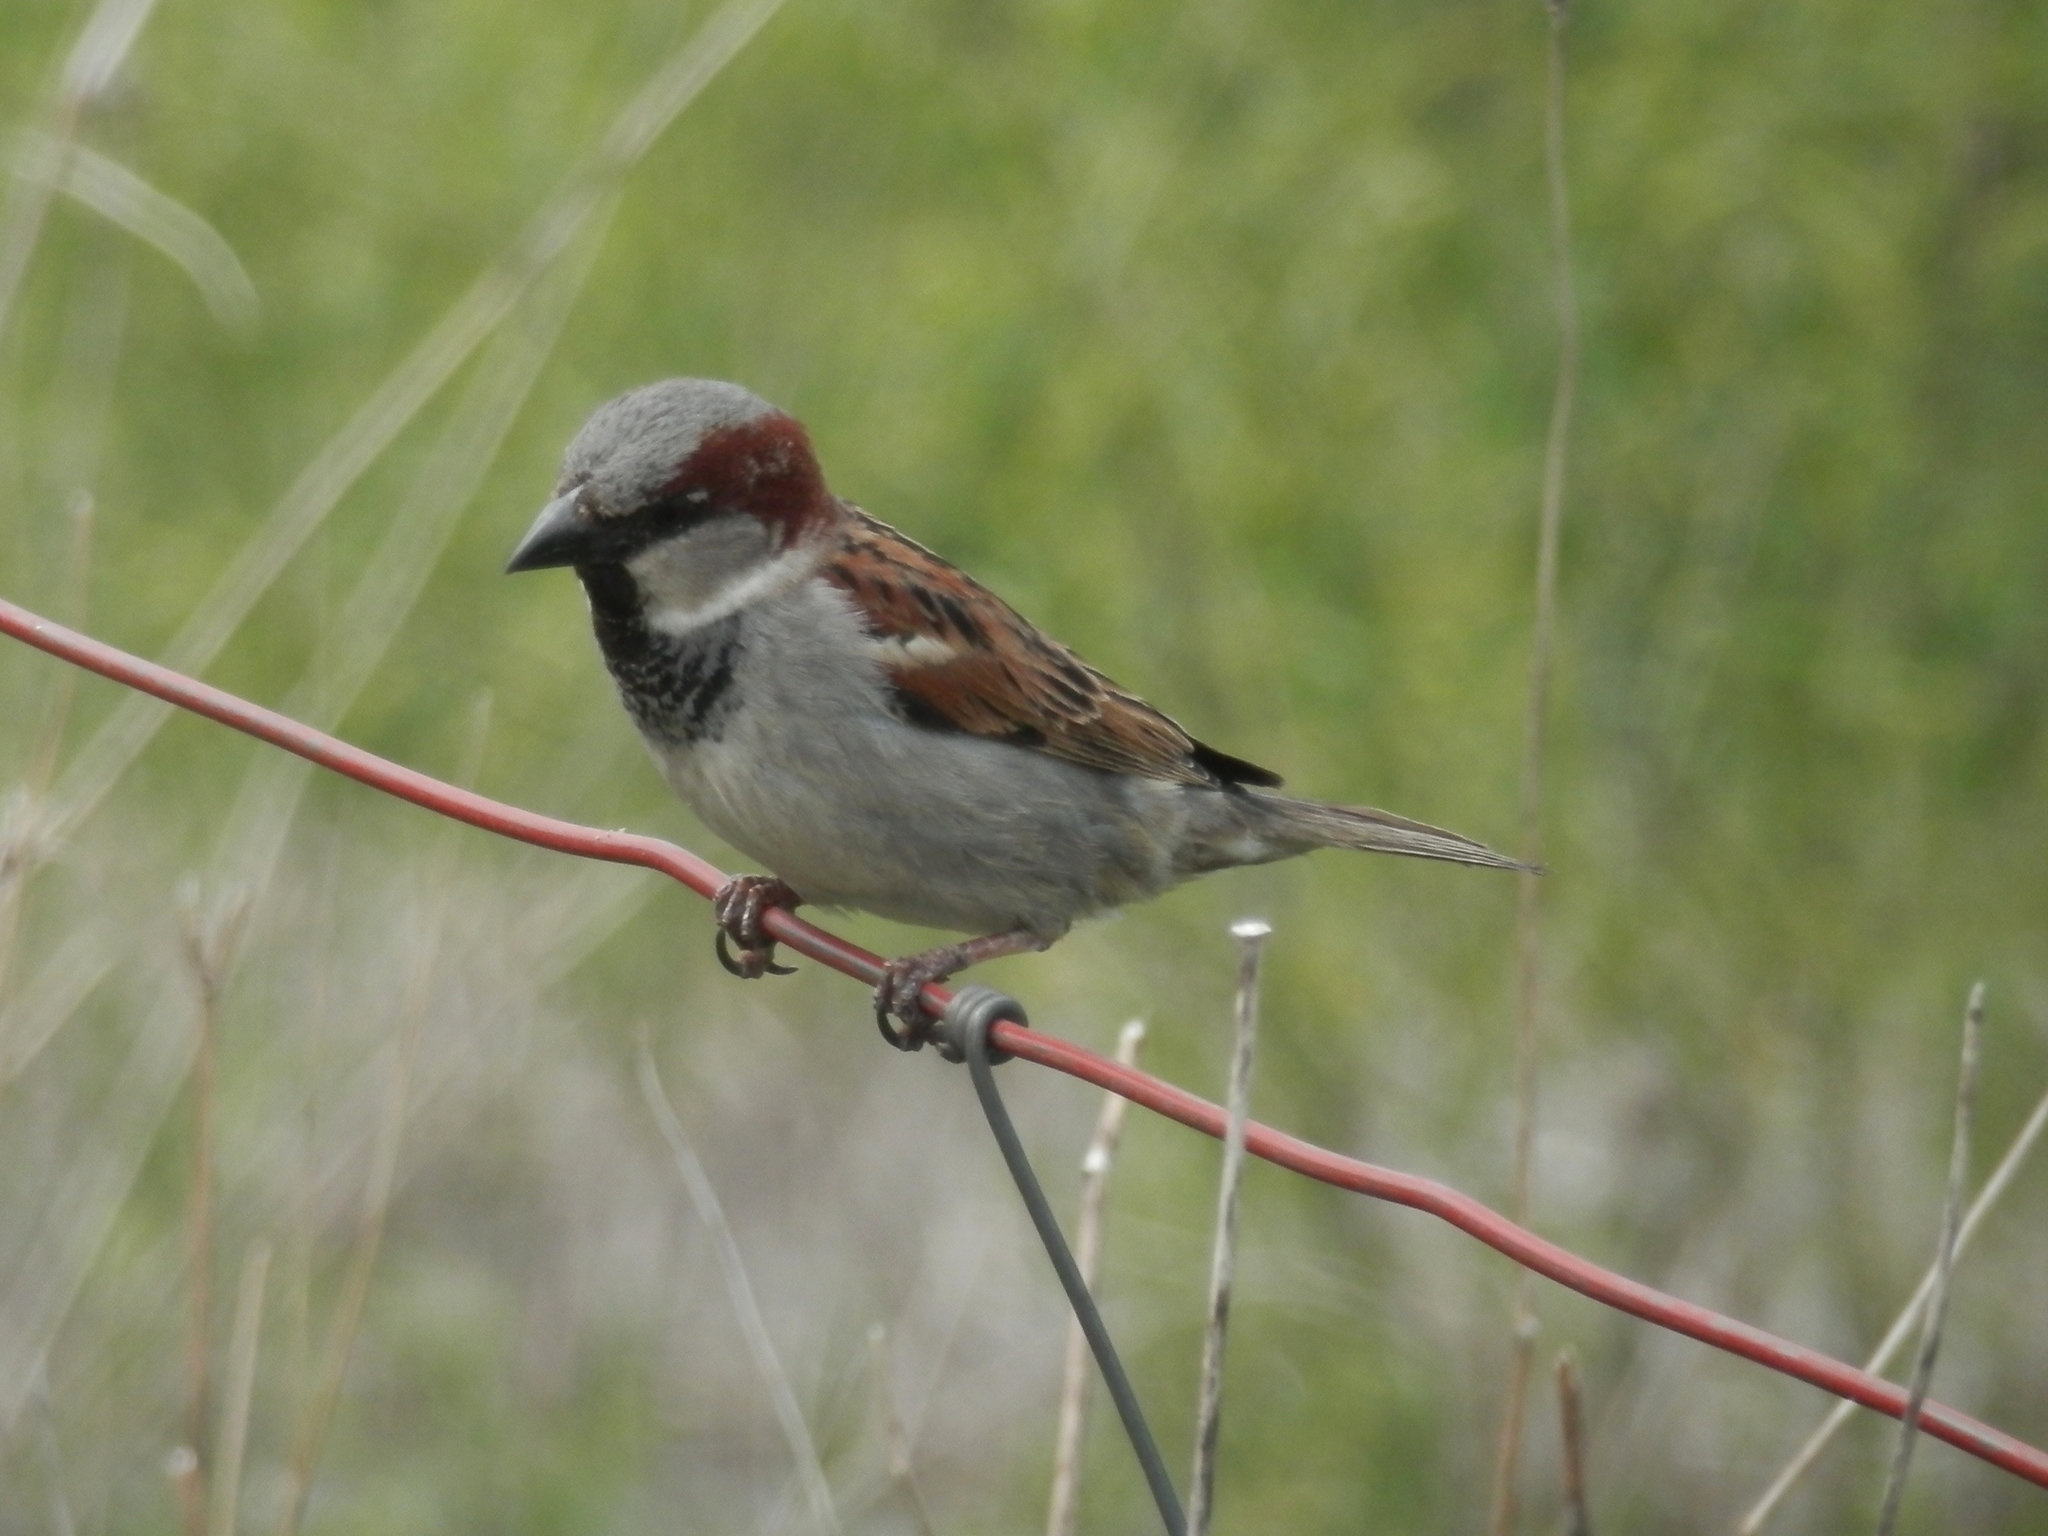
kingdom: Animalia
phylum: Chordata
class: Aves
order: Passeriformes
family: Passeridae
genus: Passer
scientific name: Passer domesticus
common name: House sparrow
